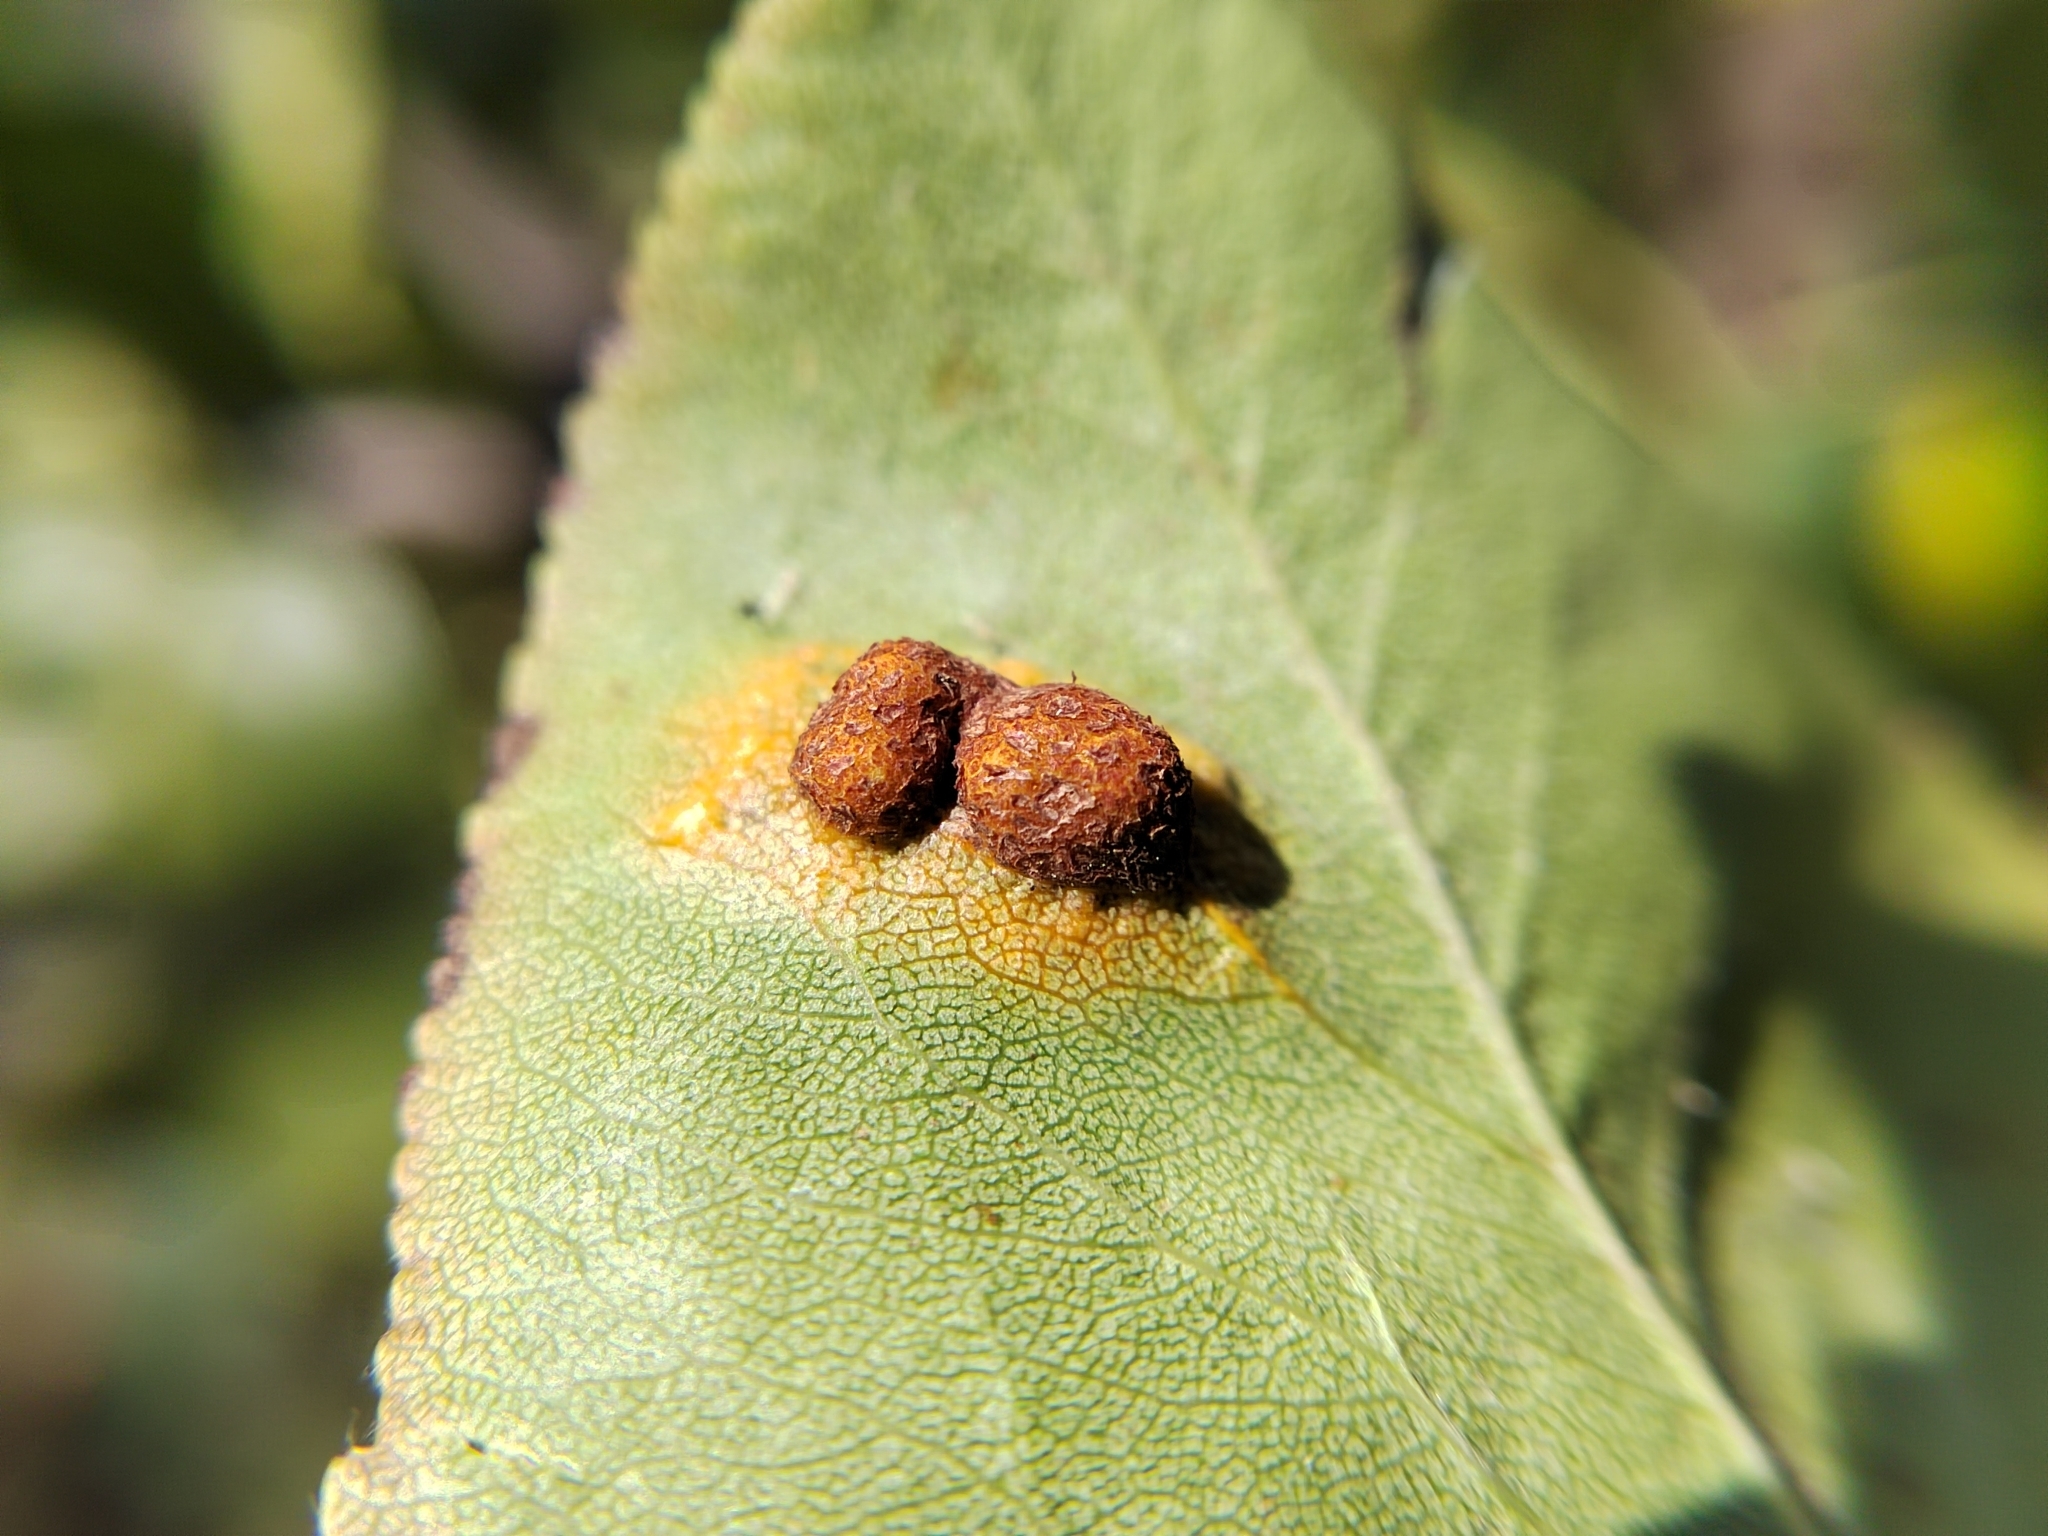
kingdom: Fungi
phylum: Basidiomycota
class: Pucciniomycetes
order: Pucciniales
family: Gymnosporangiaceae
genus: Gymnosporangium
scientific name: Gymnosporangium sabinae
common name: Pear trellis rust fungus
